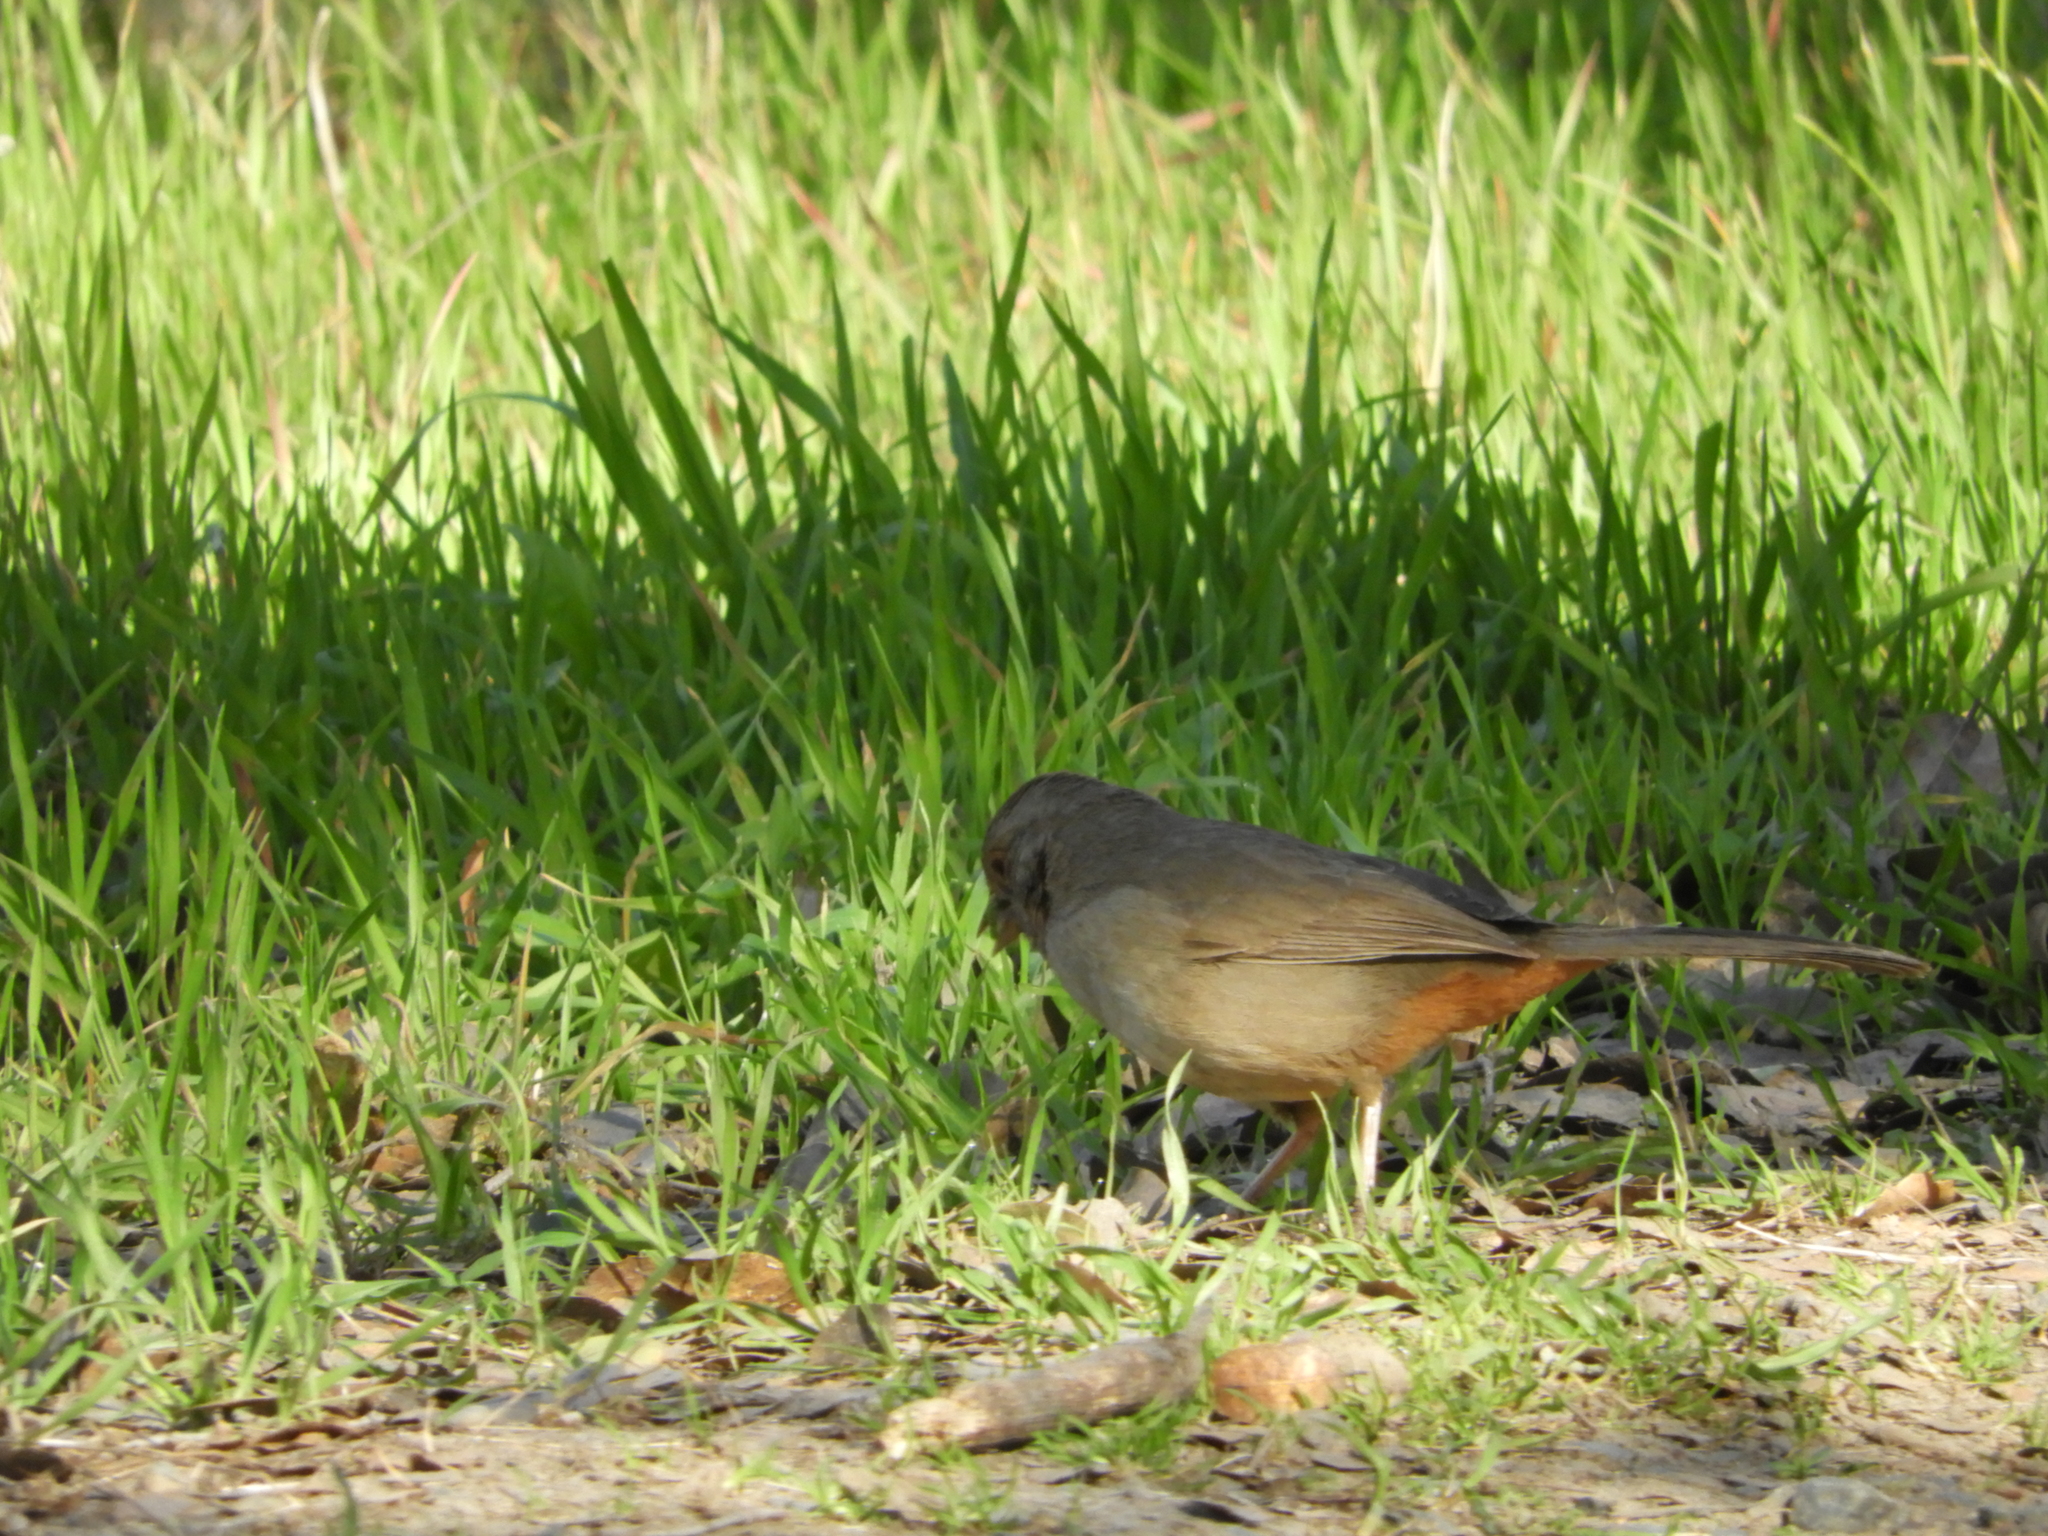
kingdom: Animalia
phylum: Chordata
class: Aves
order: Passeriformes
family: Passerellidae
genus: Melozone
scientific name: Melozone crissalis
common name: California towhee
